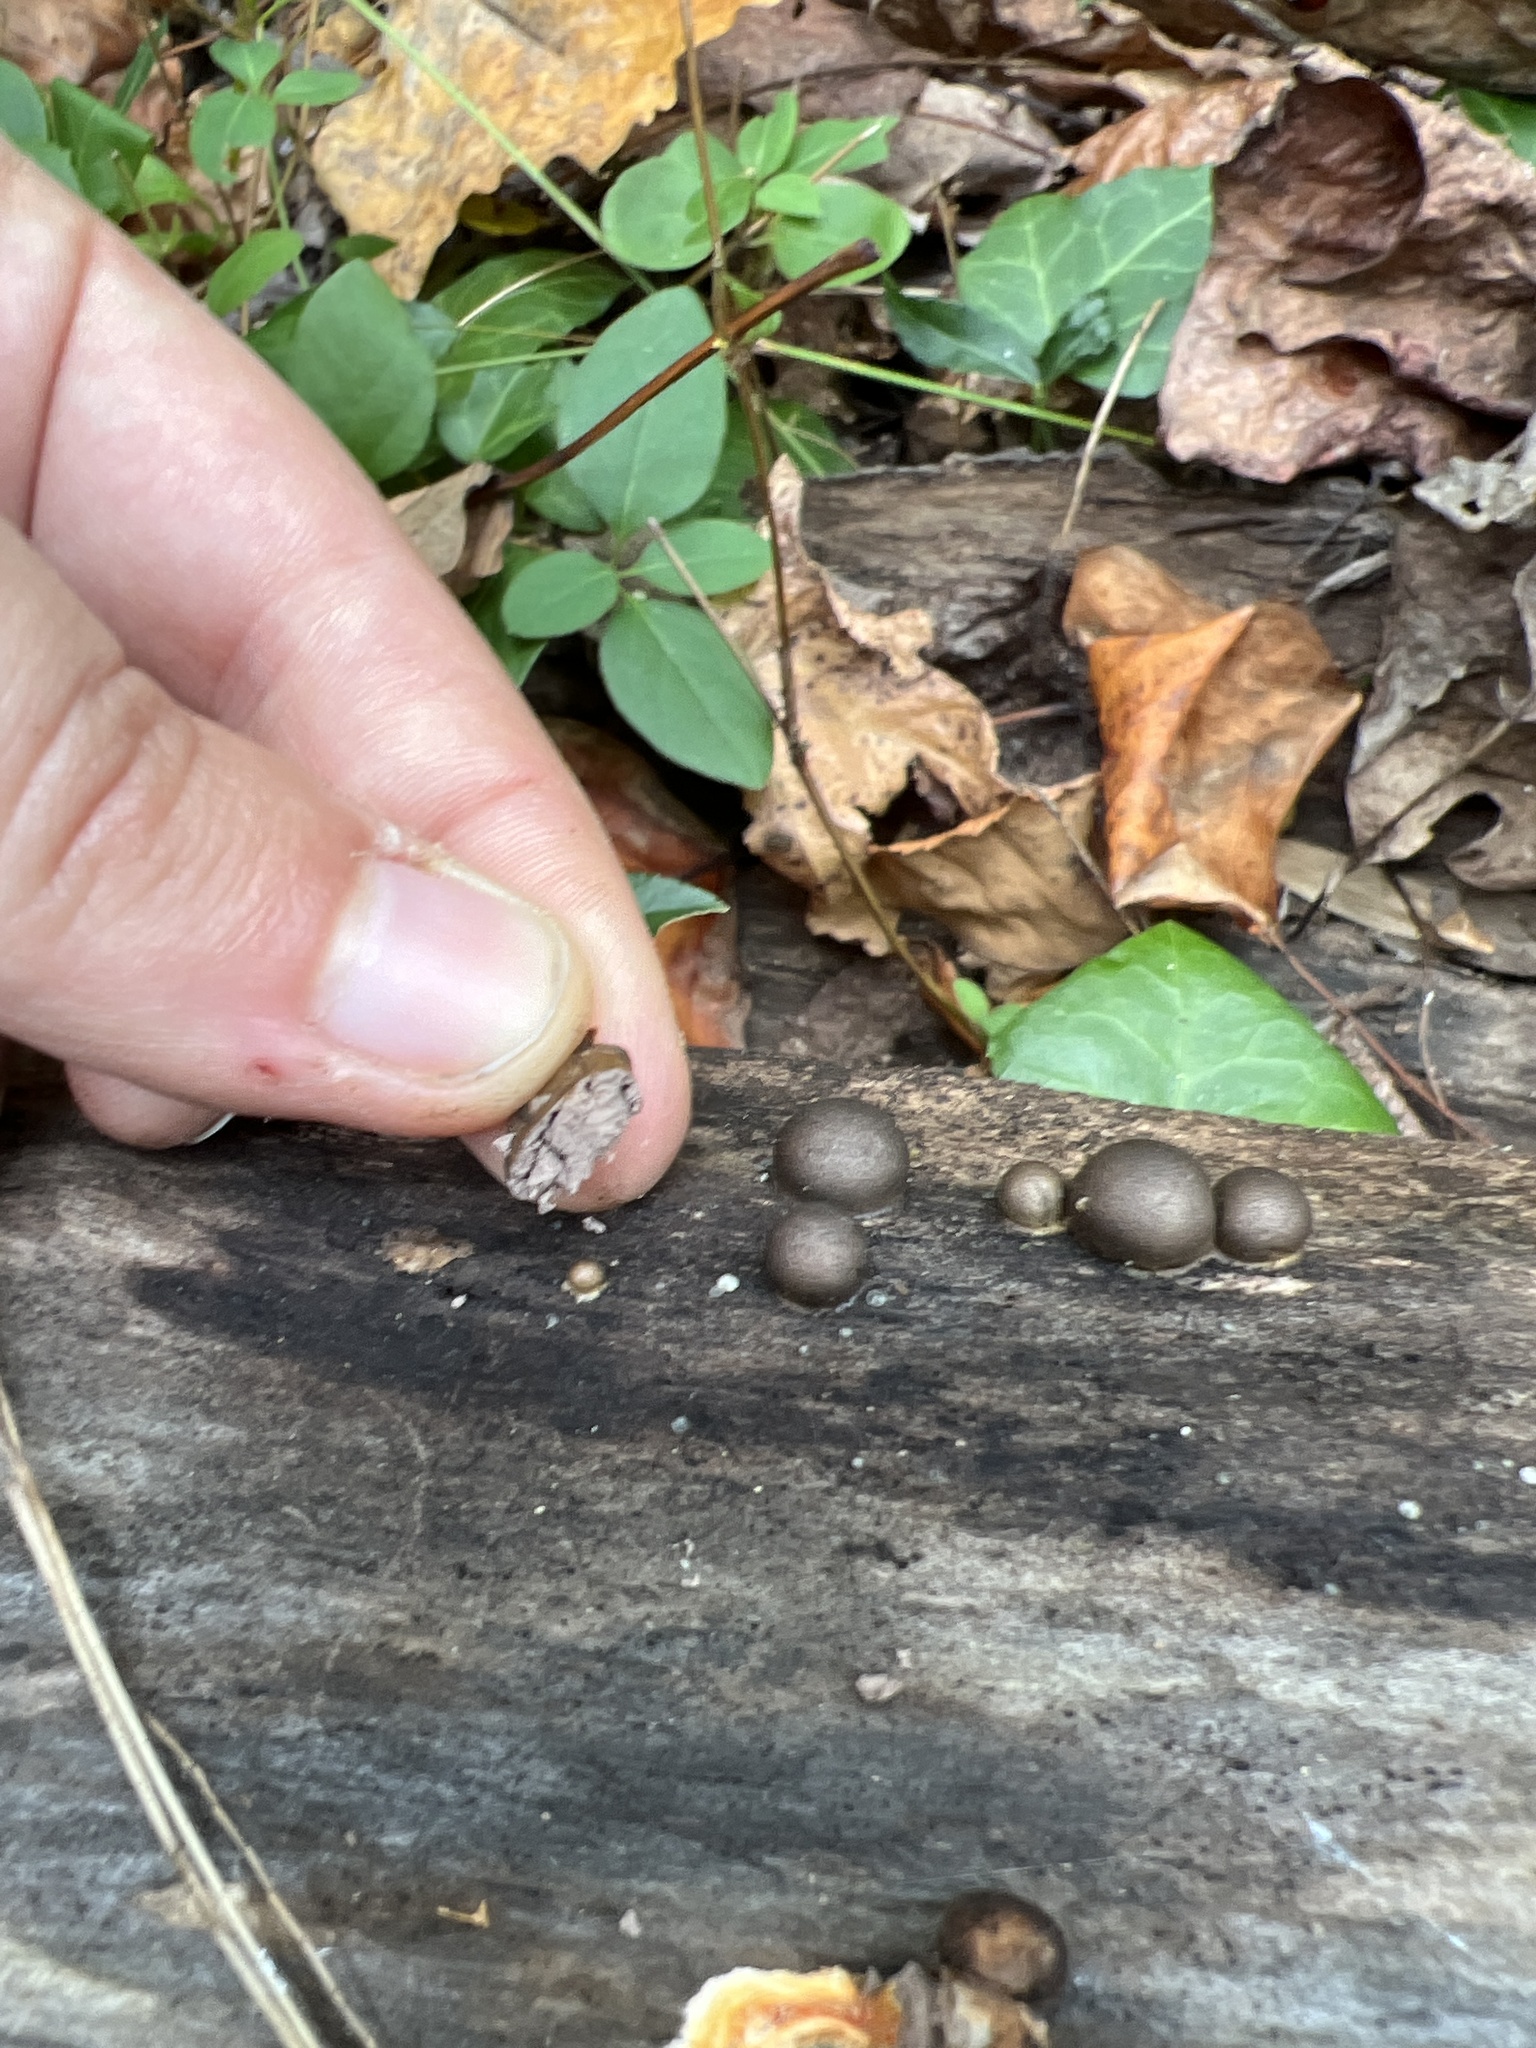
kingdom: Protozoa
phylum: Mycetozoa
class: Myxomycetes
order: Cribrariales
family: Tubiferaceae
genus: Lycogala
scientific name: Lycogala epidendrum
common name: Wolf's milk
